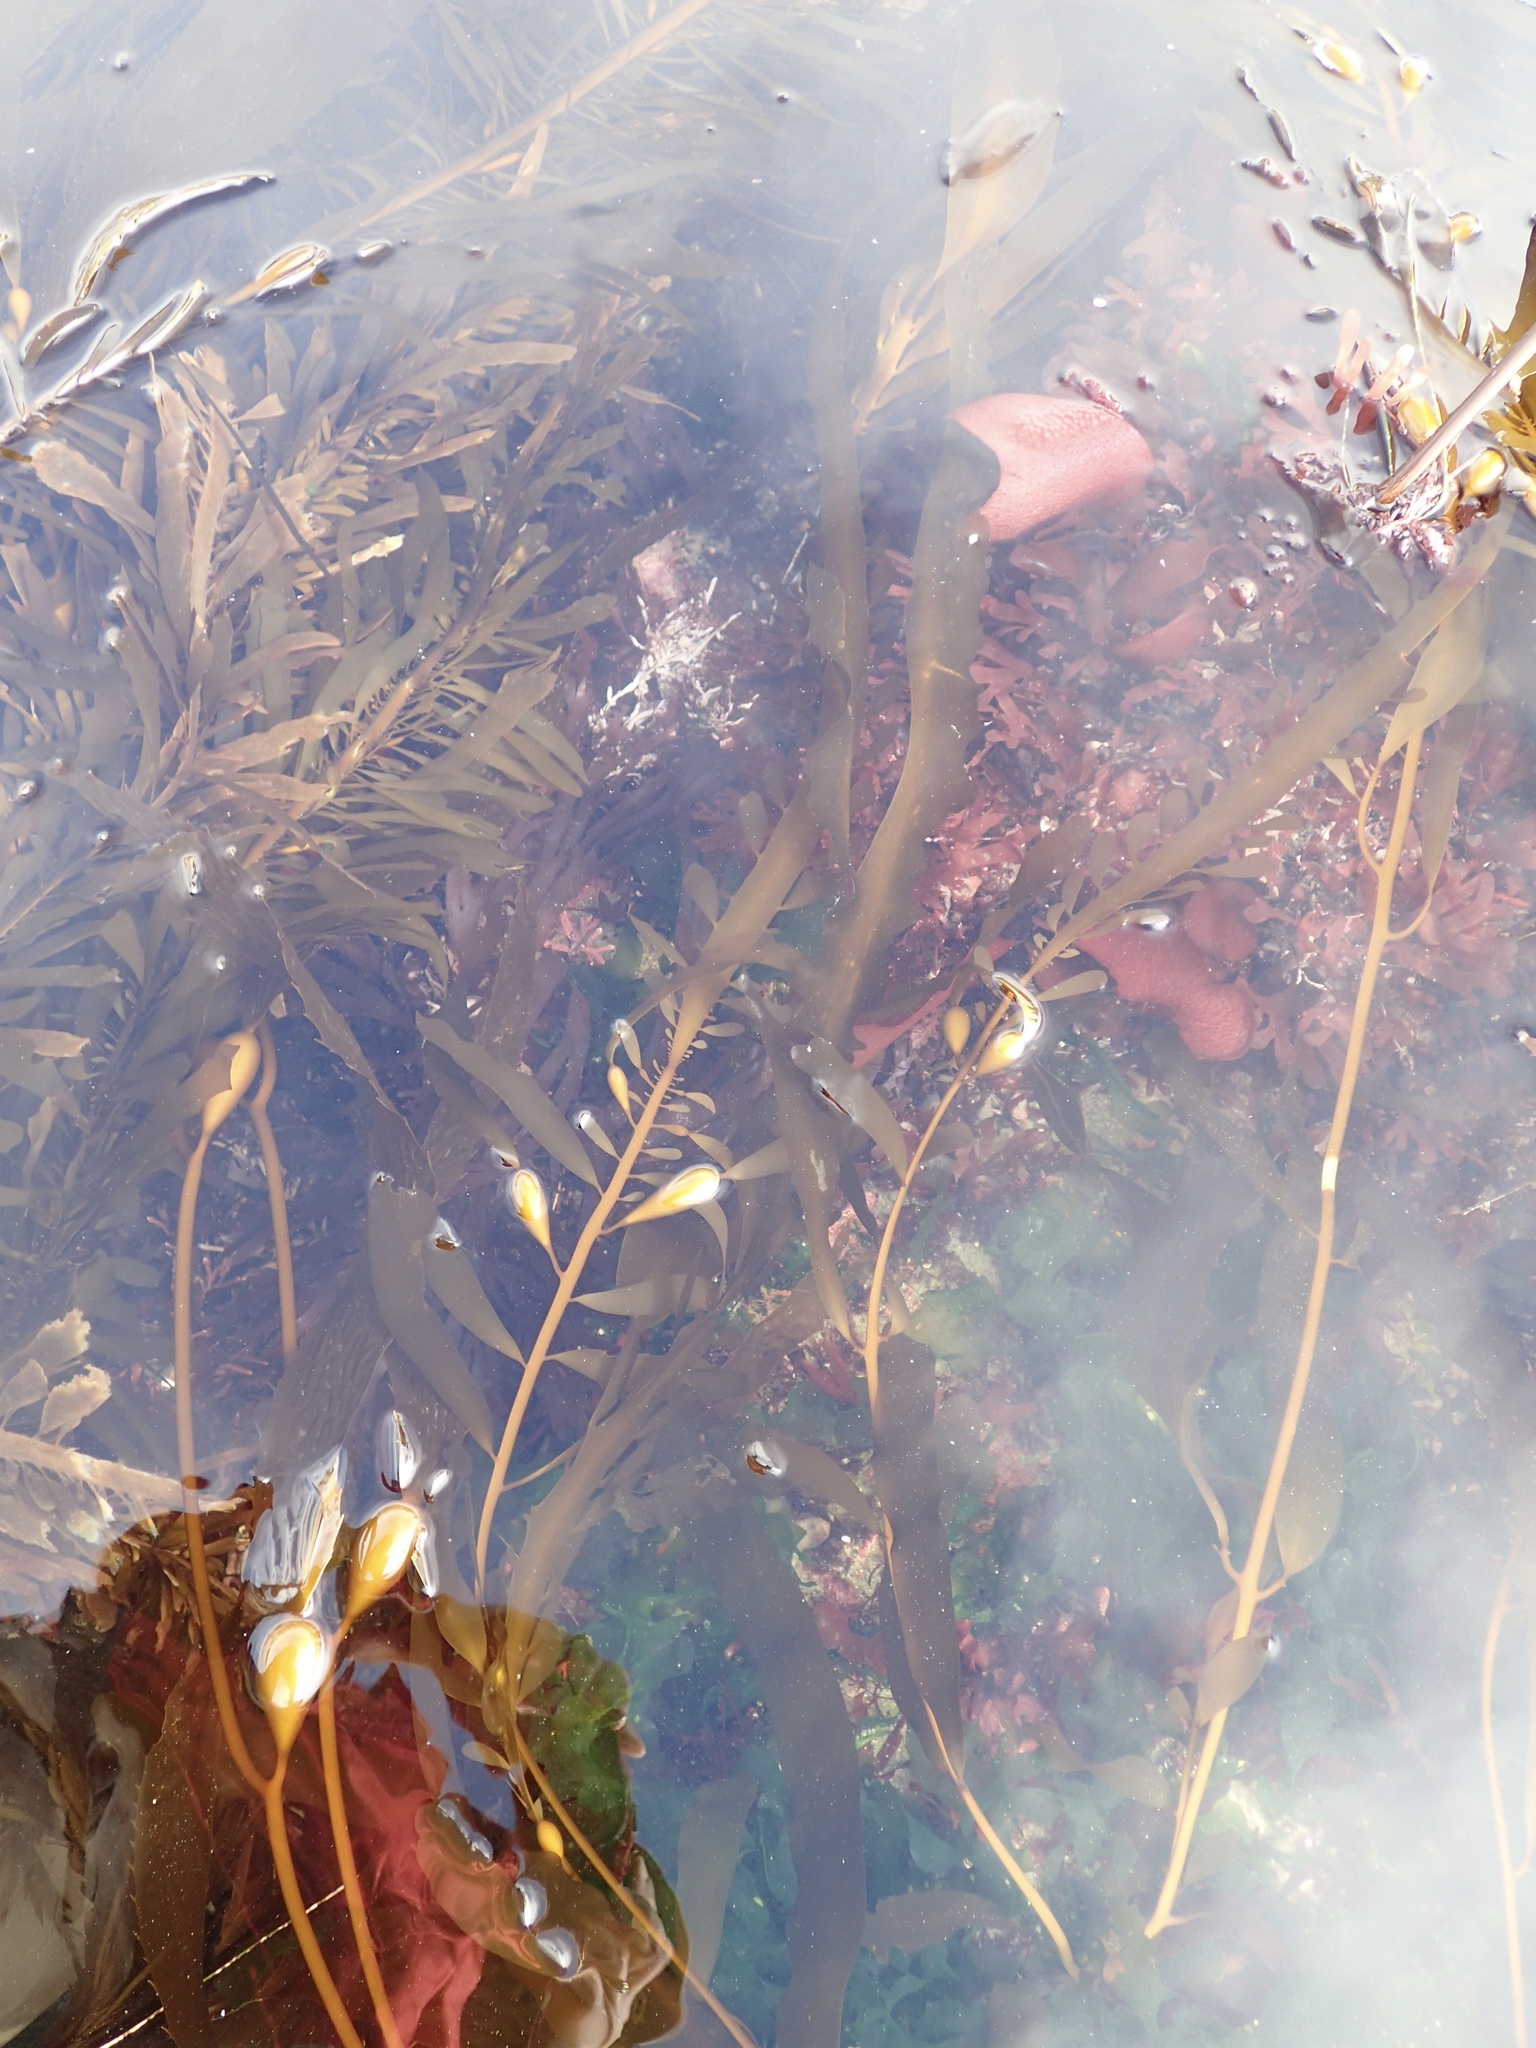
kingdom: Chromista
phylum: Ochrophyta
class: Phaeophyceae
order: Laminariales
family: Lessoniaceae
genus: Egregia
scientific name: Egregia menziesii
